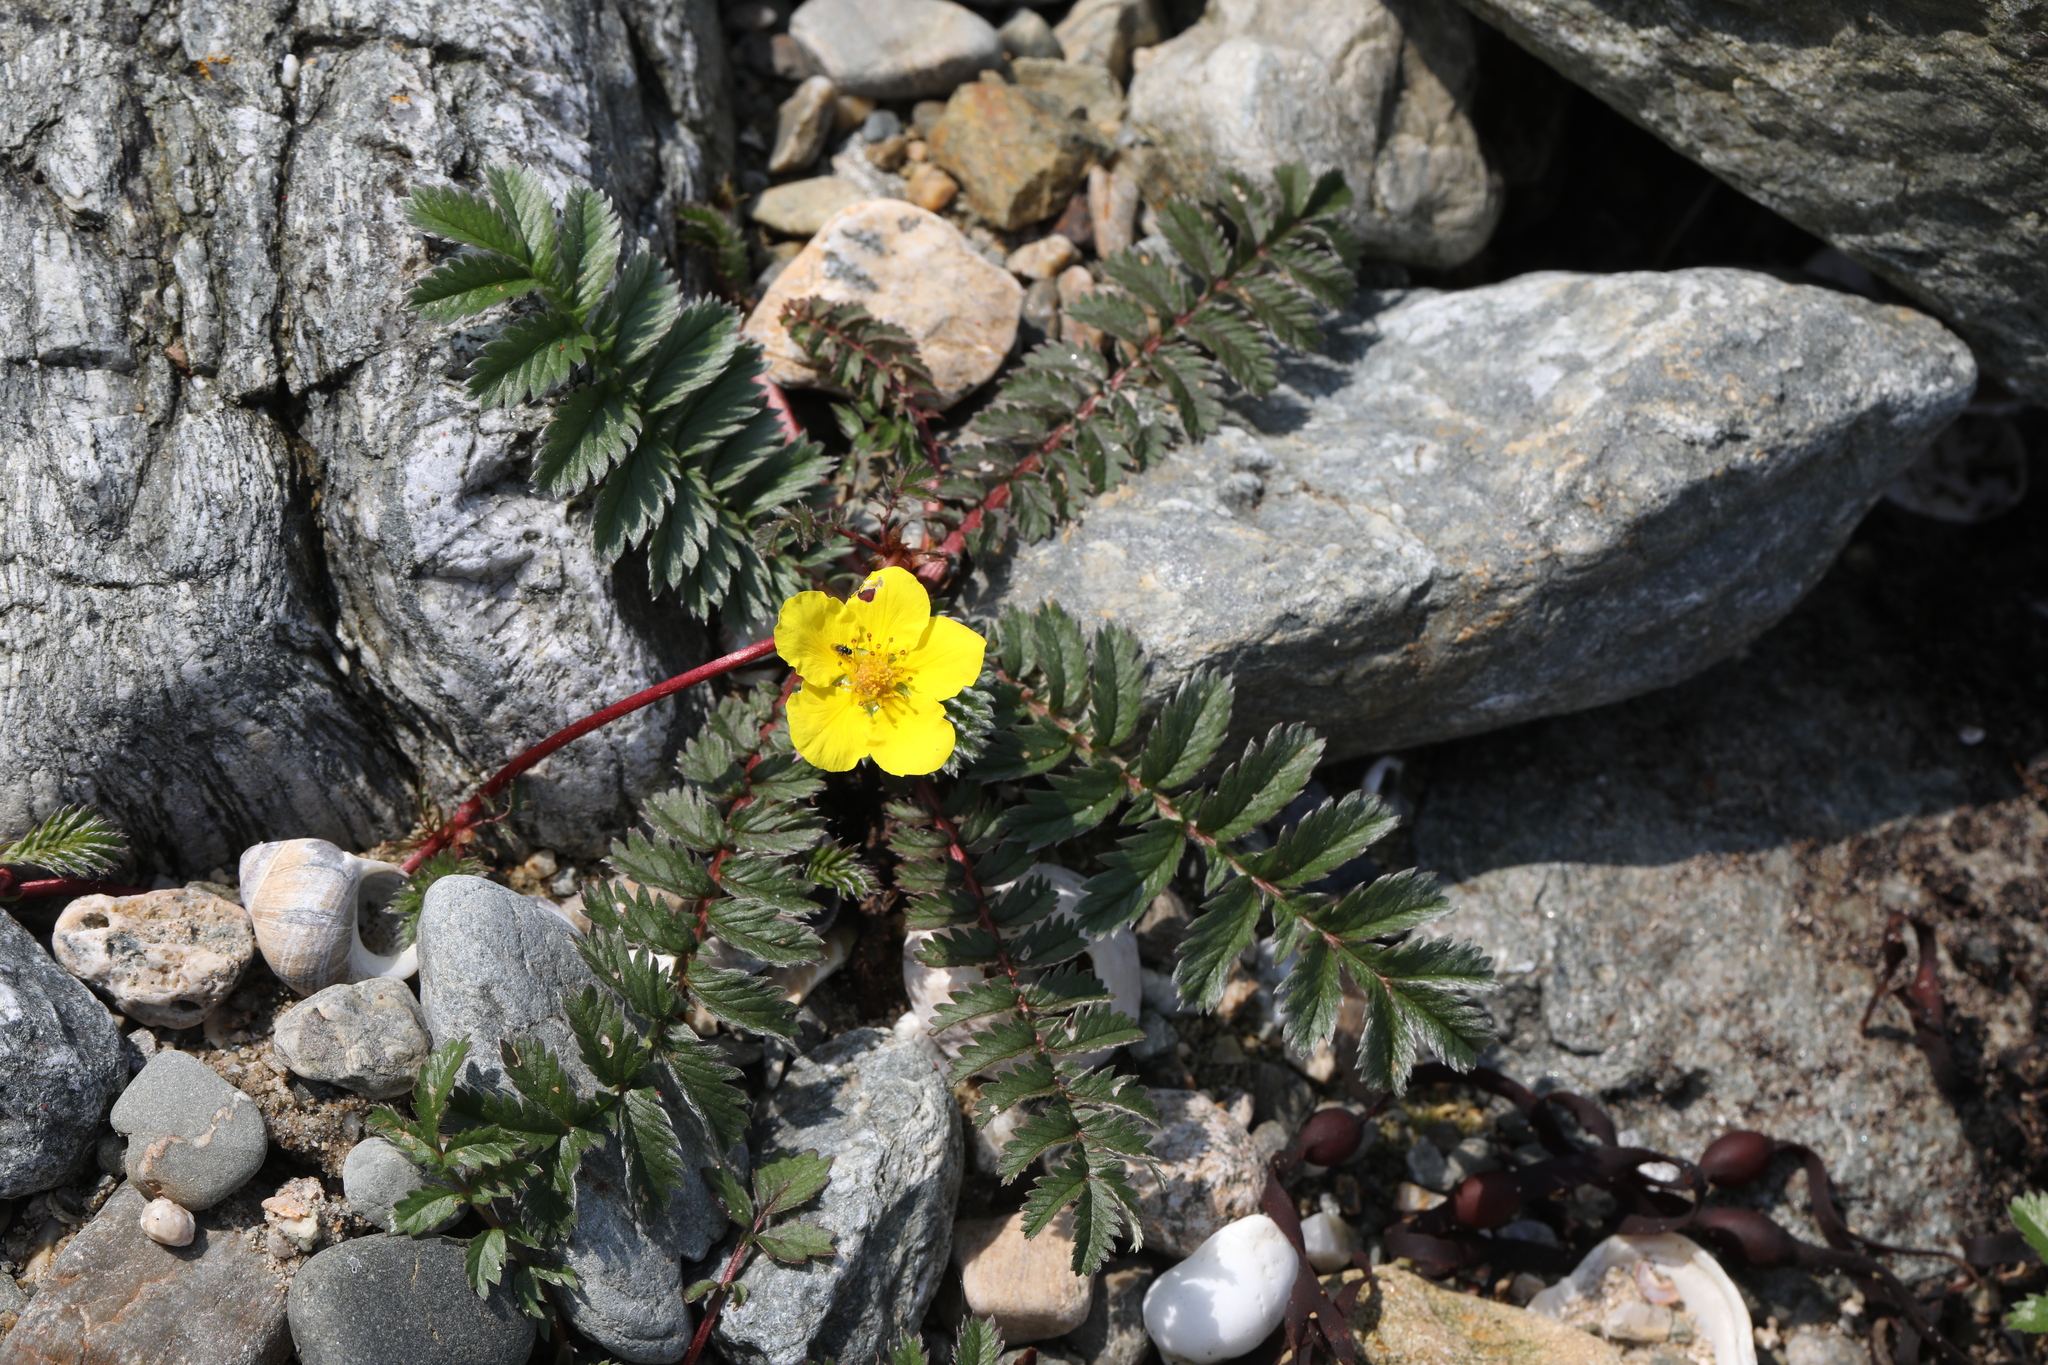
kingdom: Plantae
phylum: Tracheophyta
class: Magnoliopsida
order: Rosales
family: Rosaceae
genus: Argentina
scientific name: Argentina anserina
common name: Common silverweed
